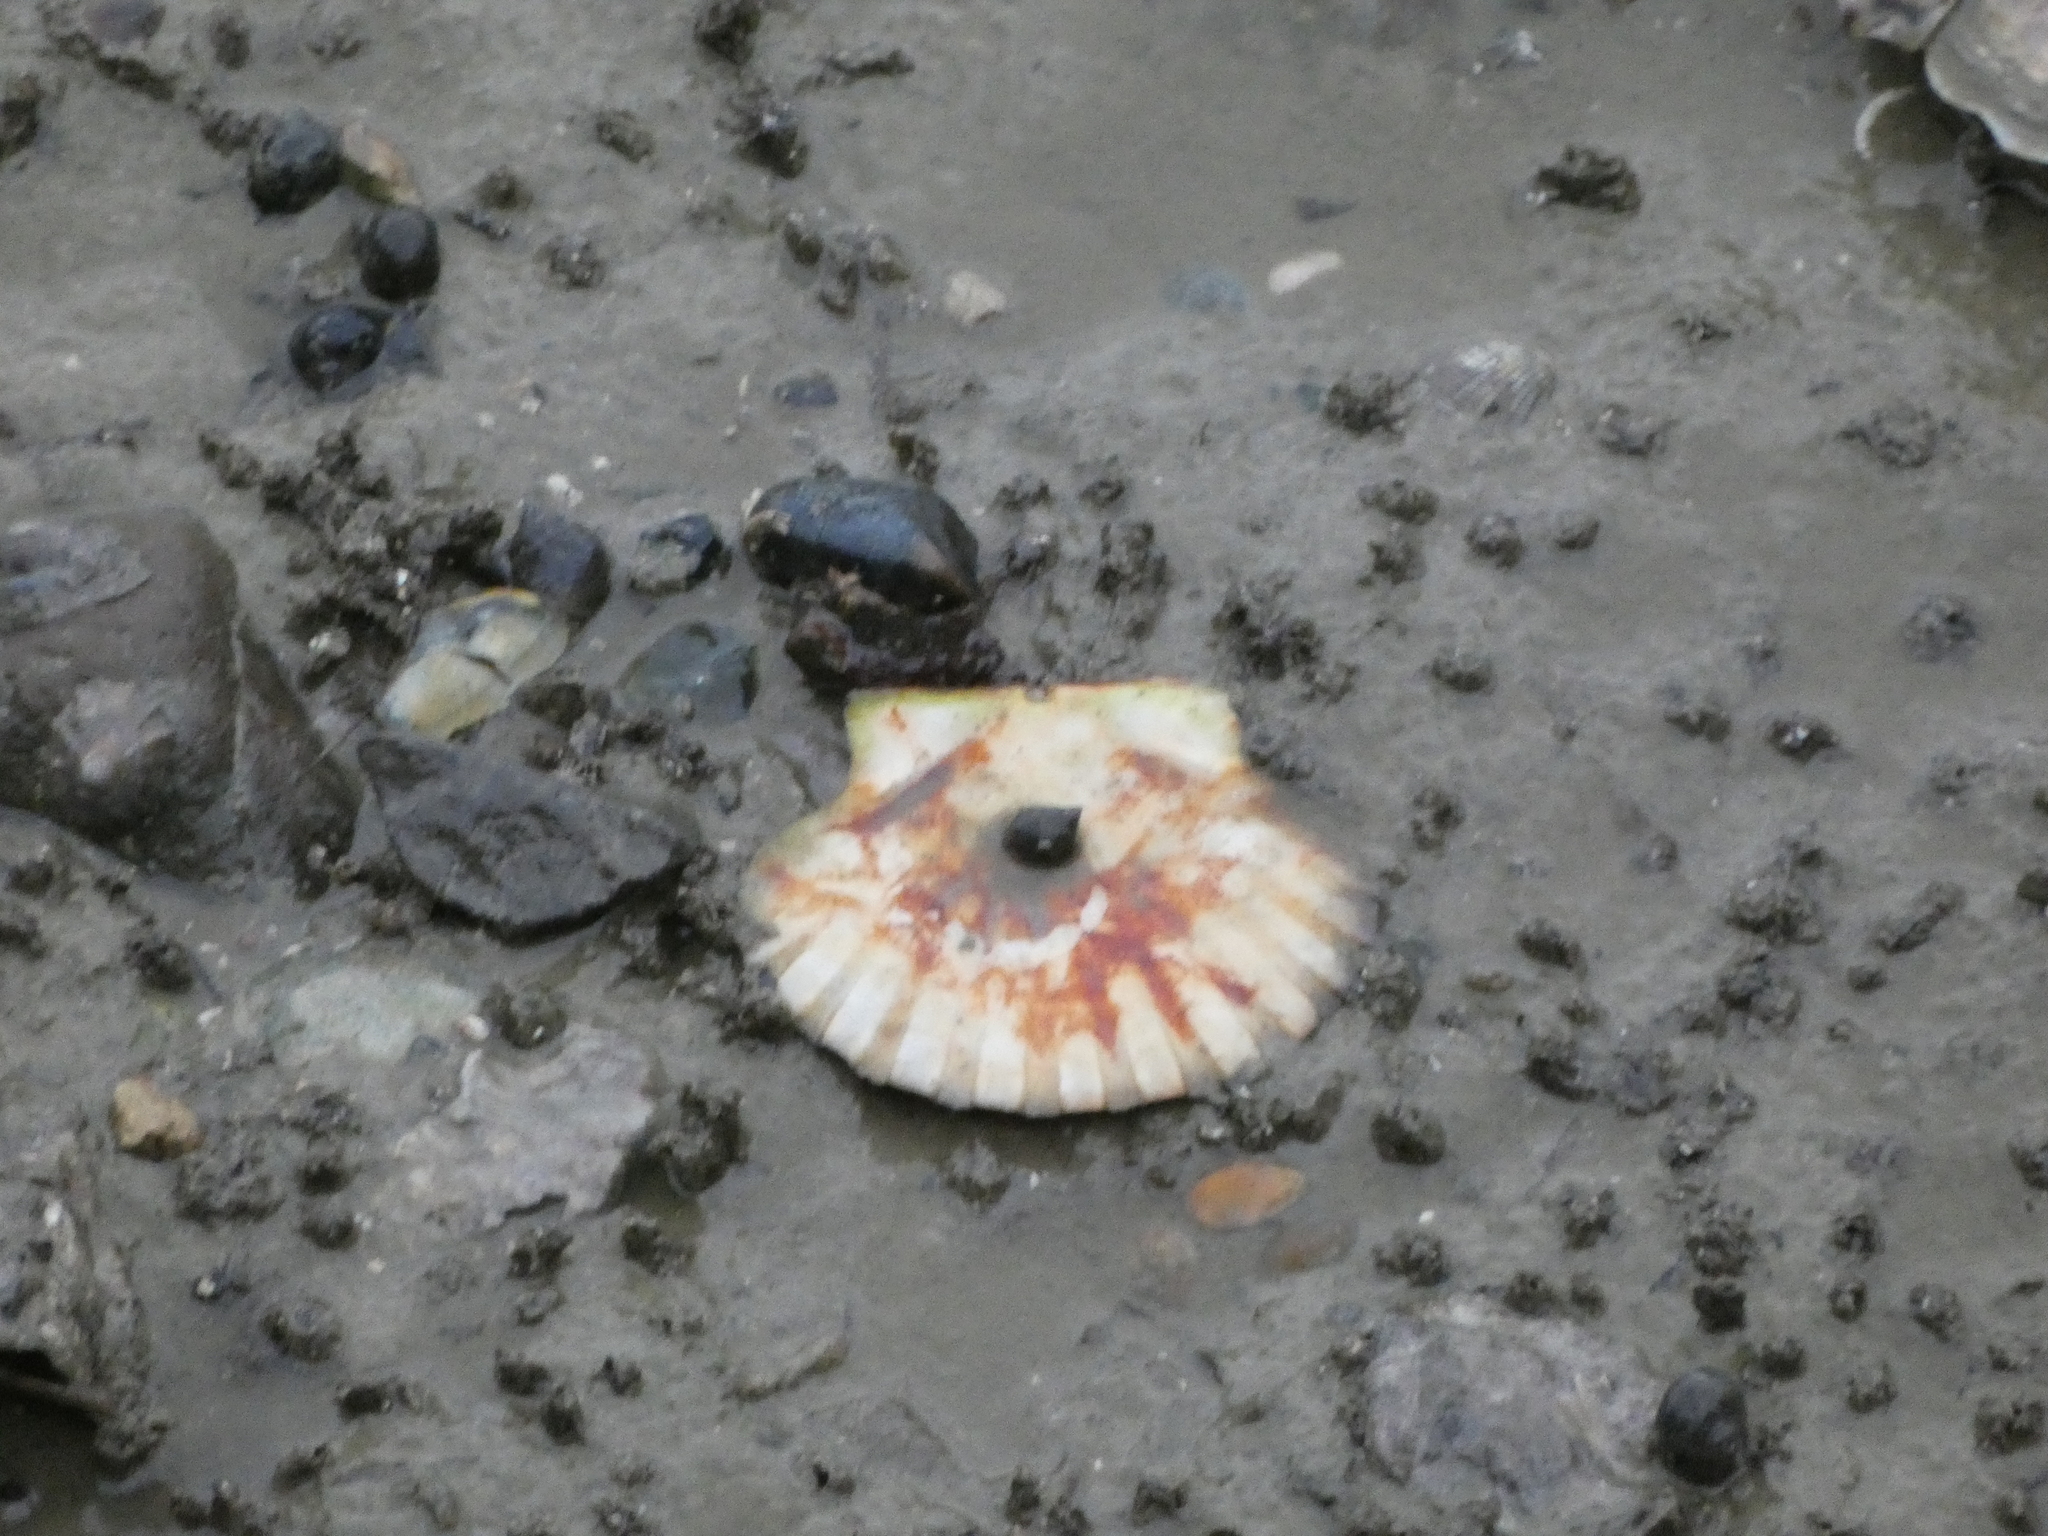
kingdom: Animalia
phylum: Mollusca
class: Bivalvia
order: Pectinida
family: Pectinidae
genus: Pecten
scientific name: Pecten maximus
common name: Great scallop
